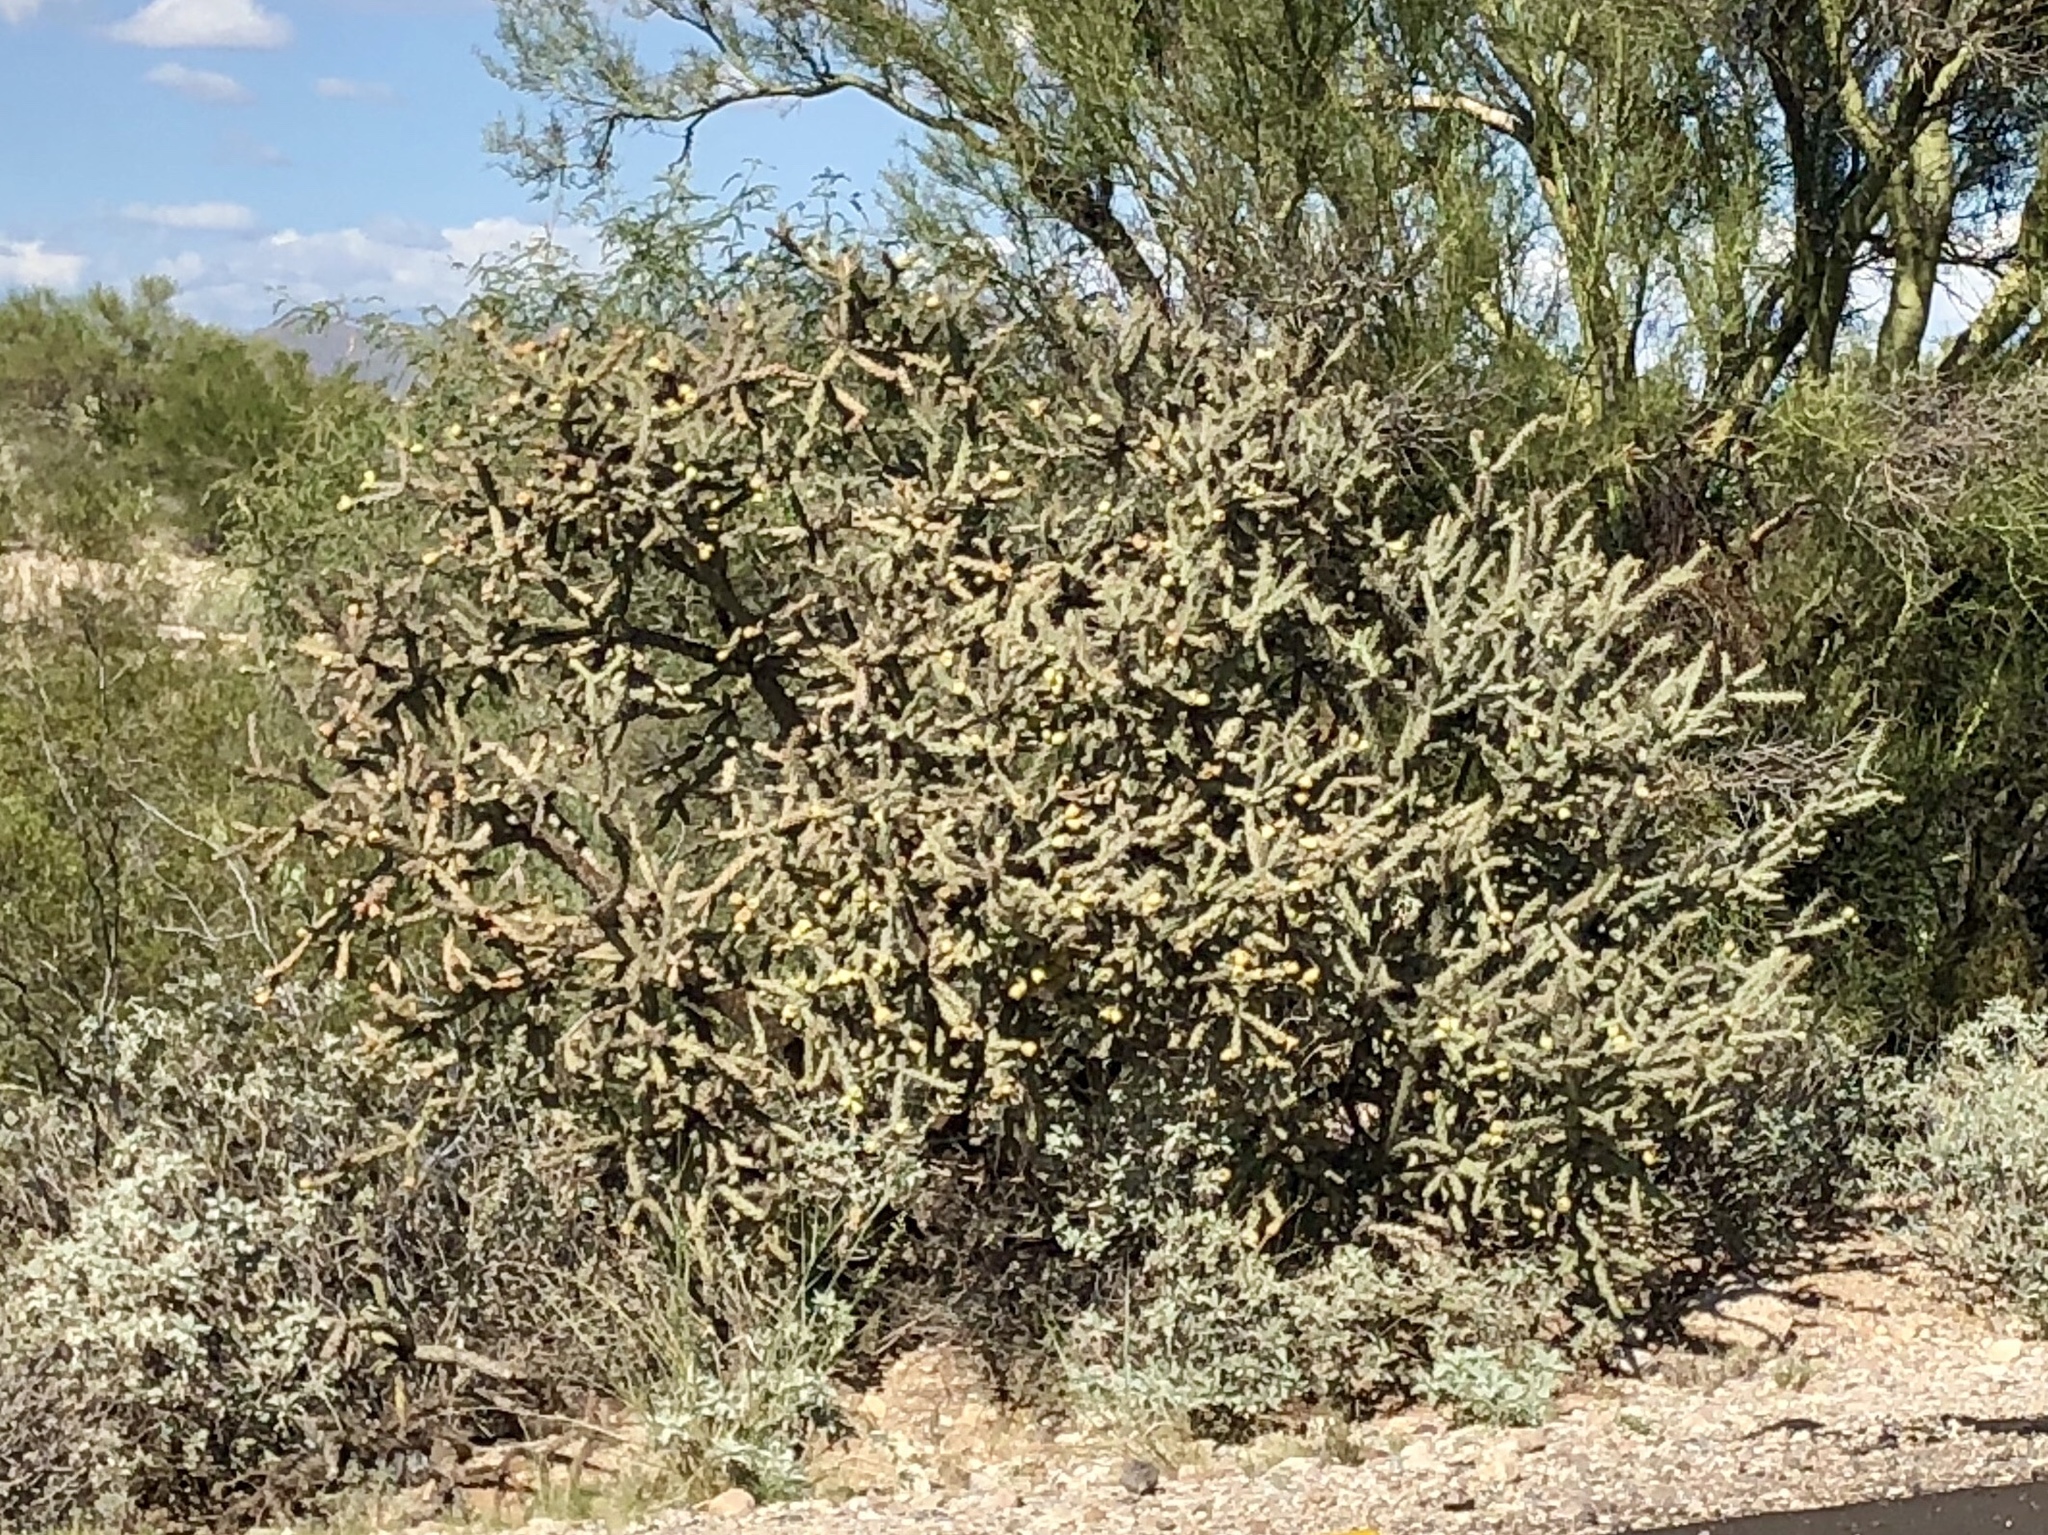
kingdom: Plantae
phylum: Tracheophyta
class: Magnoliopsida
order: Caryophyllales
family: Cactaceae
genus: Cylindropuntia
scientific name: Cylindropuntia imbricata
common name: Candelabrum cactus
